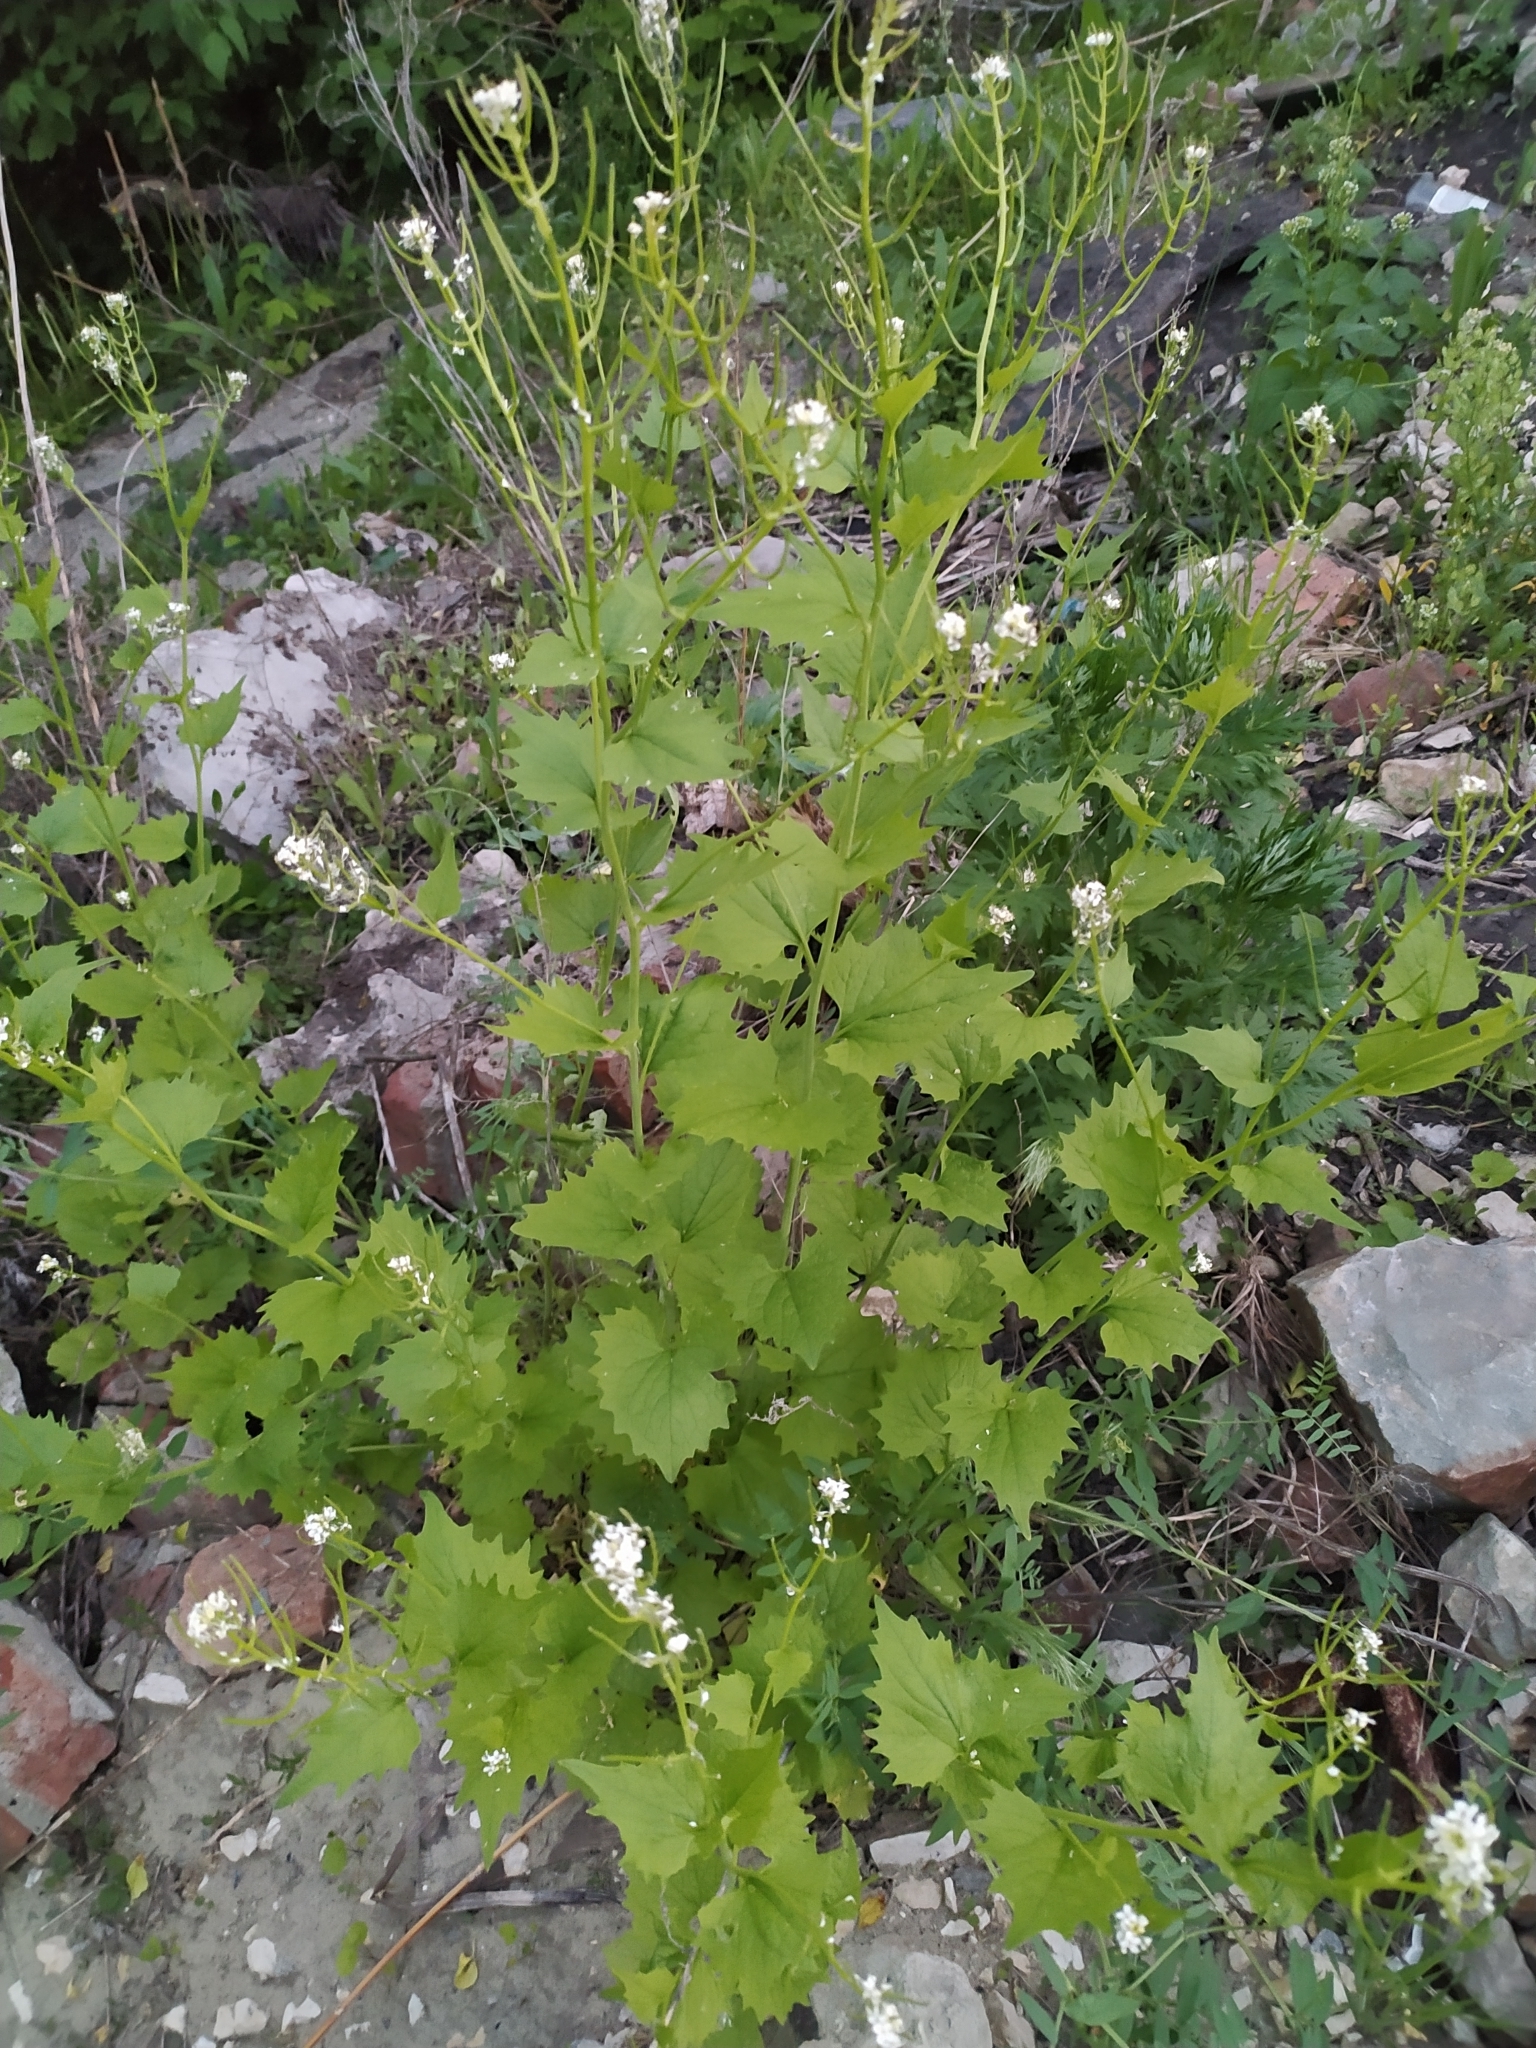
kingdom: Plantae
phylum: Tracheophyta
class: Magnoliopsida
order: Brassicales
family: Brassicaceae
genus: Alliaria
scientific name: Alliaria petiolata
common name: Garlic mustard
